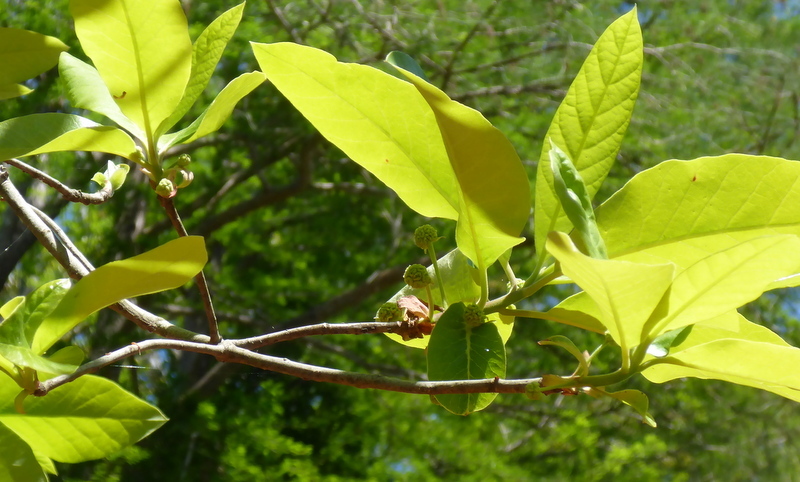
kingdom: Plantae
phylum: Tracheophyta
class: Magnoliopsida
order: Cornales
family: Nyssaceae
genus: Nyssa
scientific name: Nyssa ogeche
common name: Ogeechee tupelo
